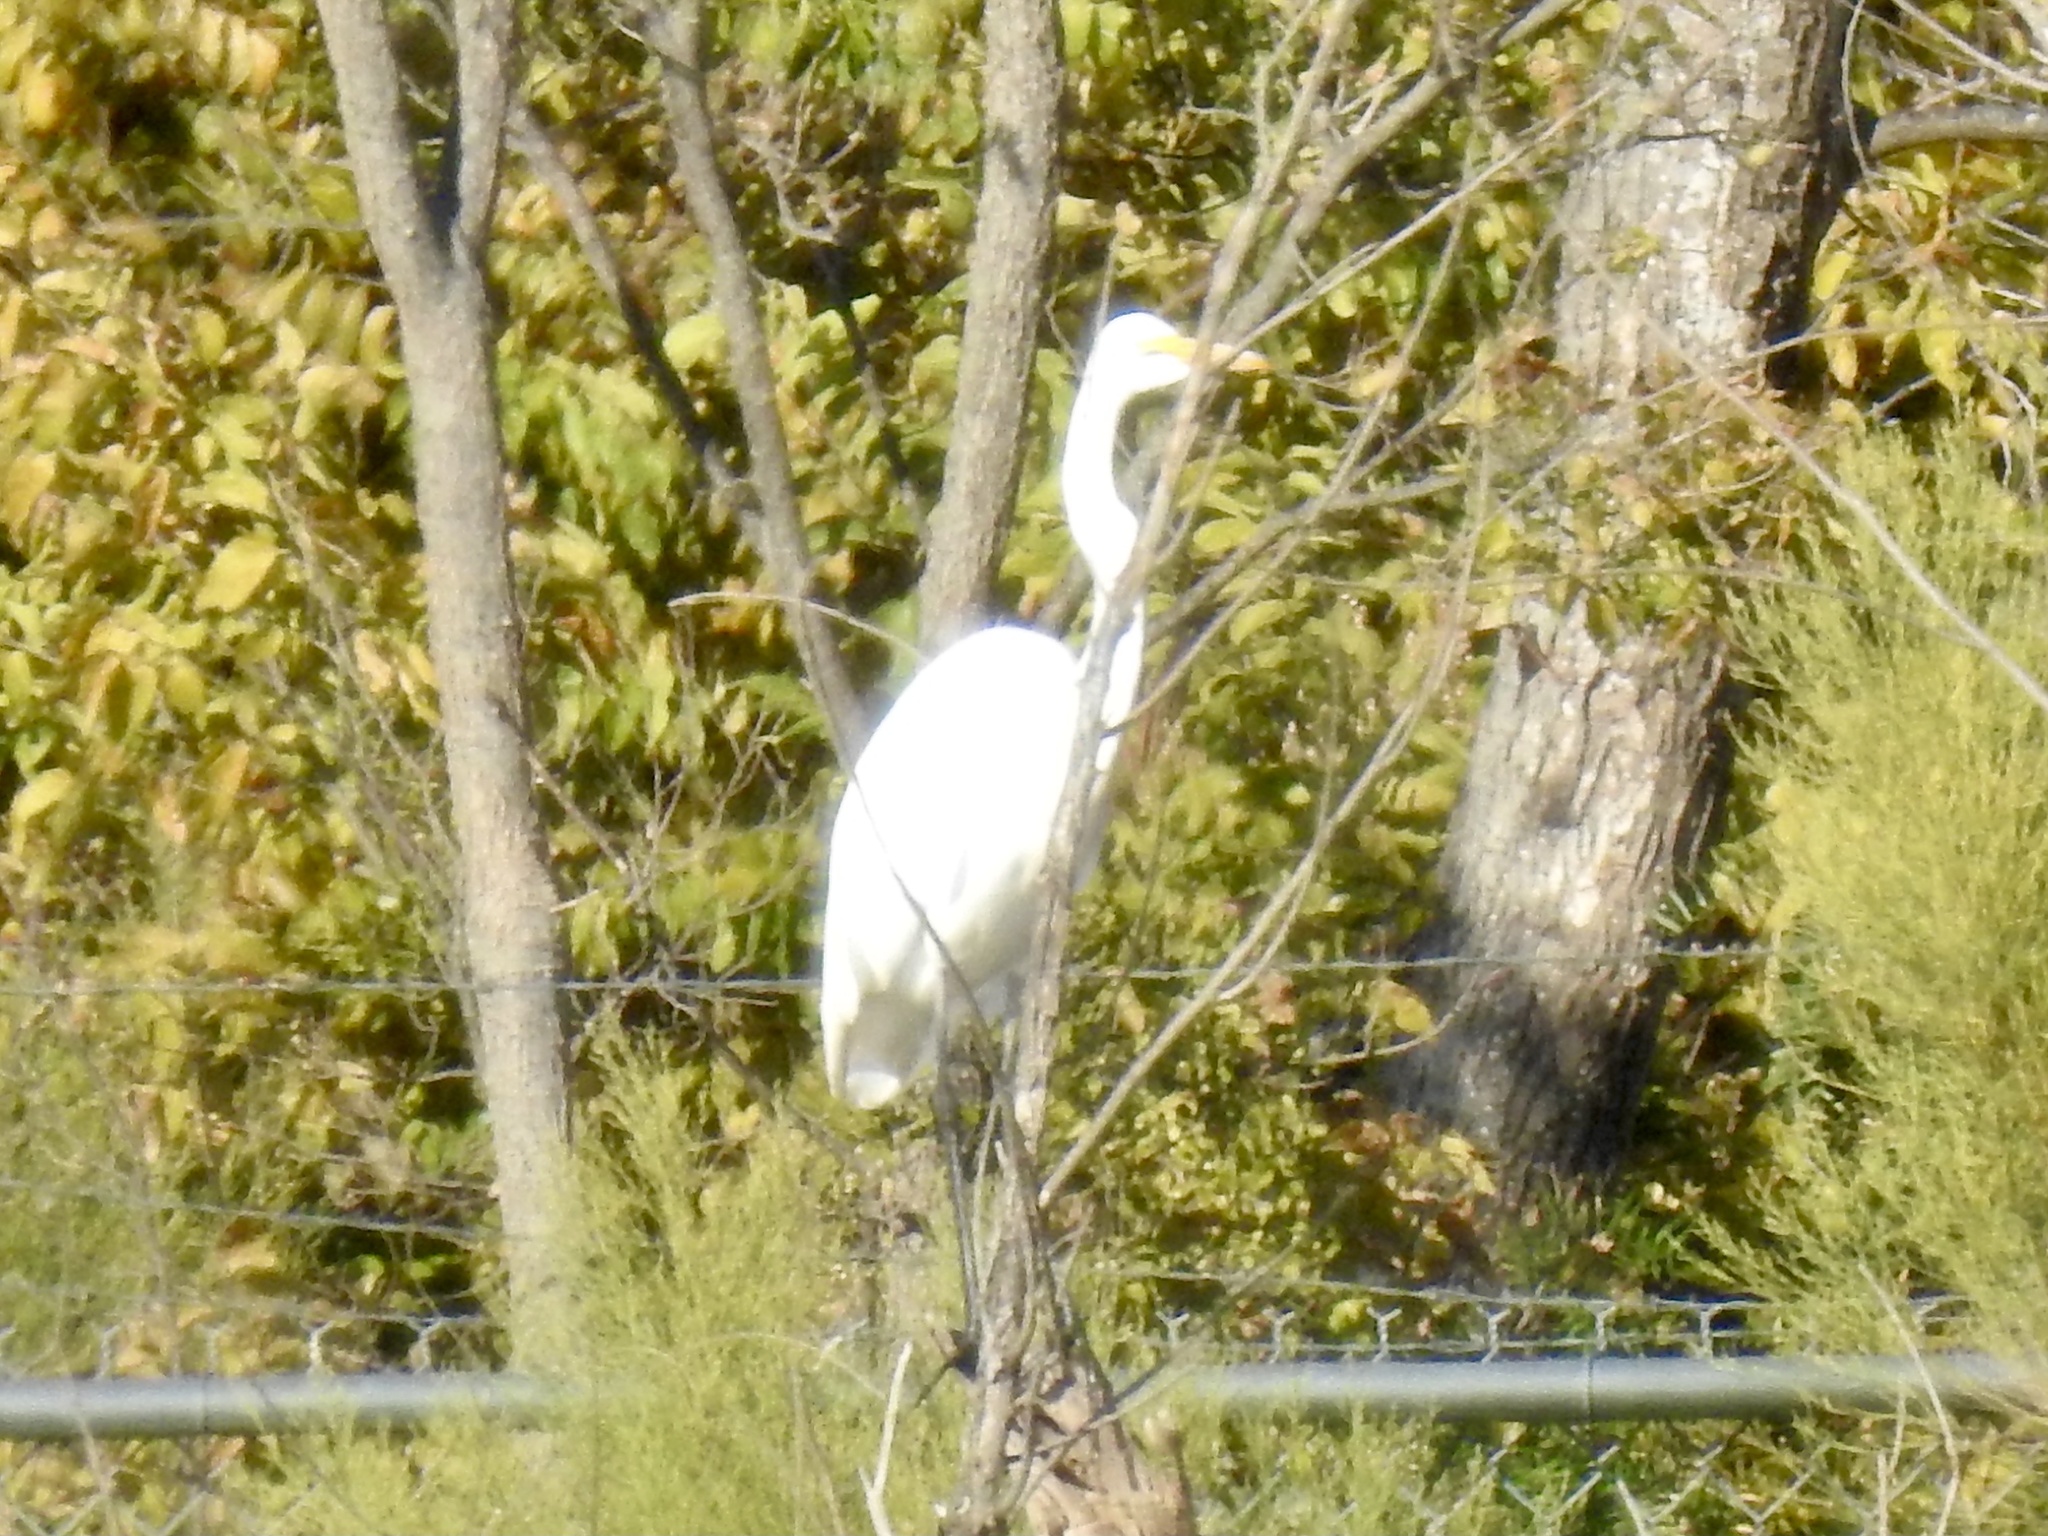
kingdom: Animalia
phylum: Chordata
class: Aves
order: Pelecaniformes
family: Ardeidae
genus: Ardea
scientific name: Ardea alba
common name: Great egret
